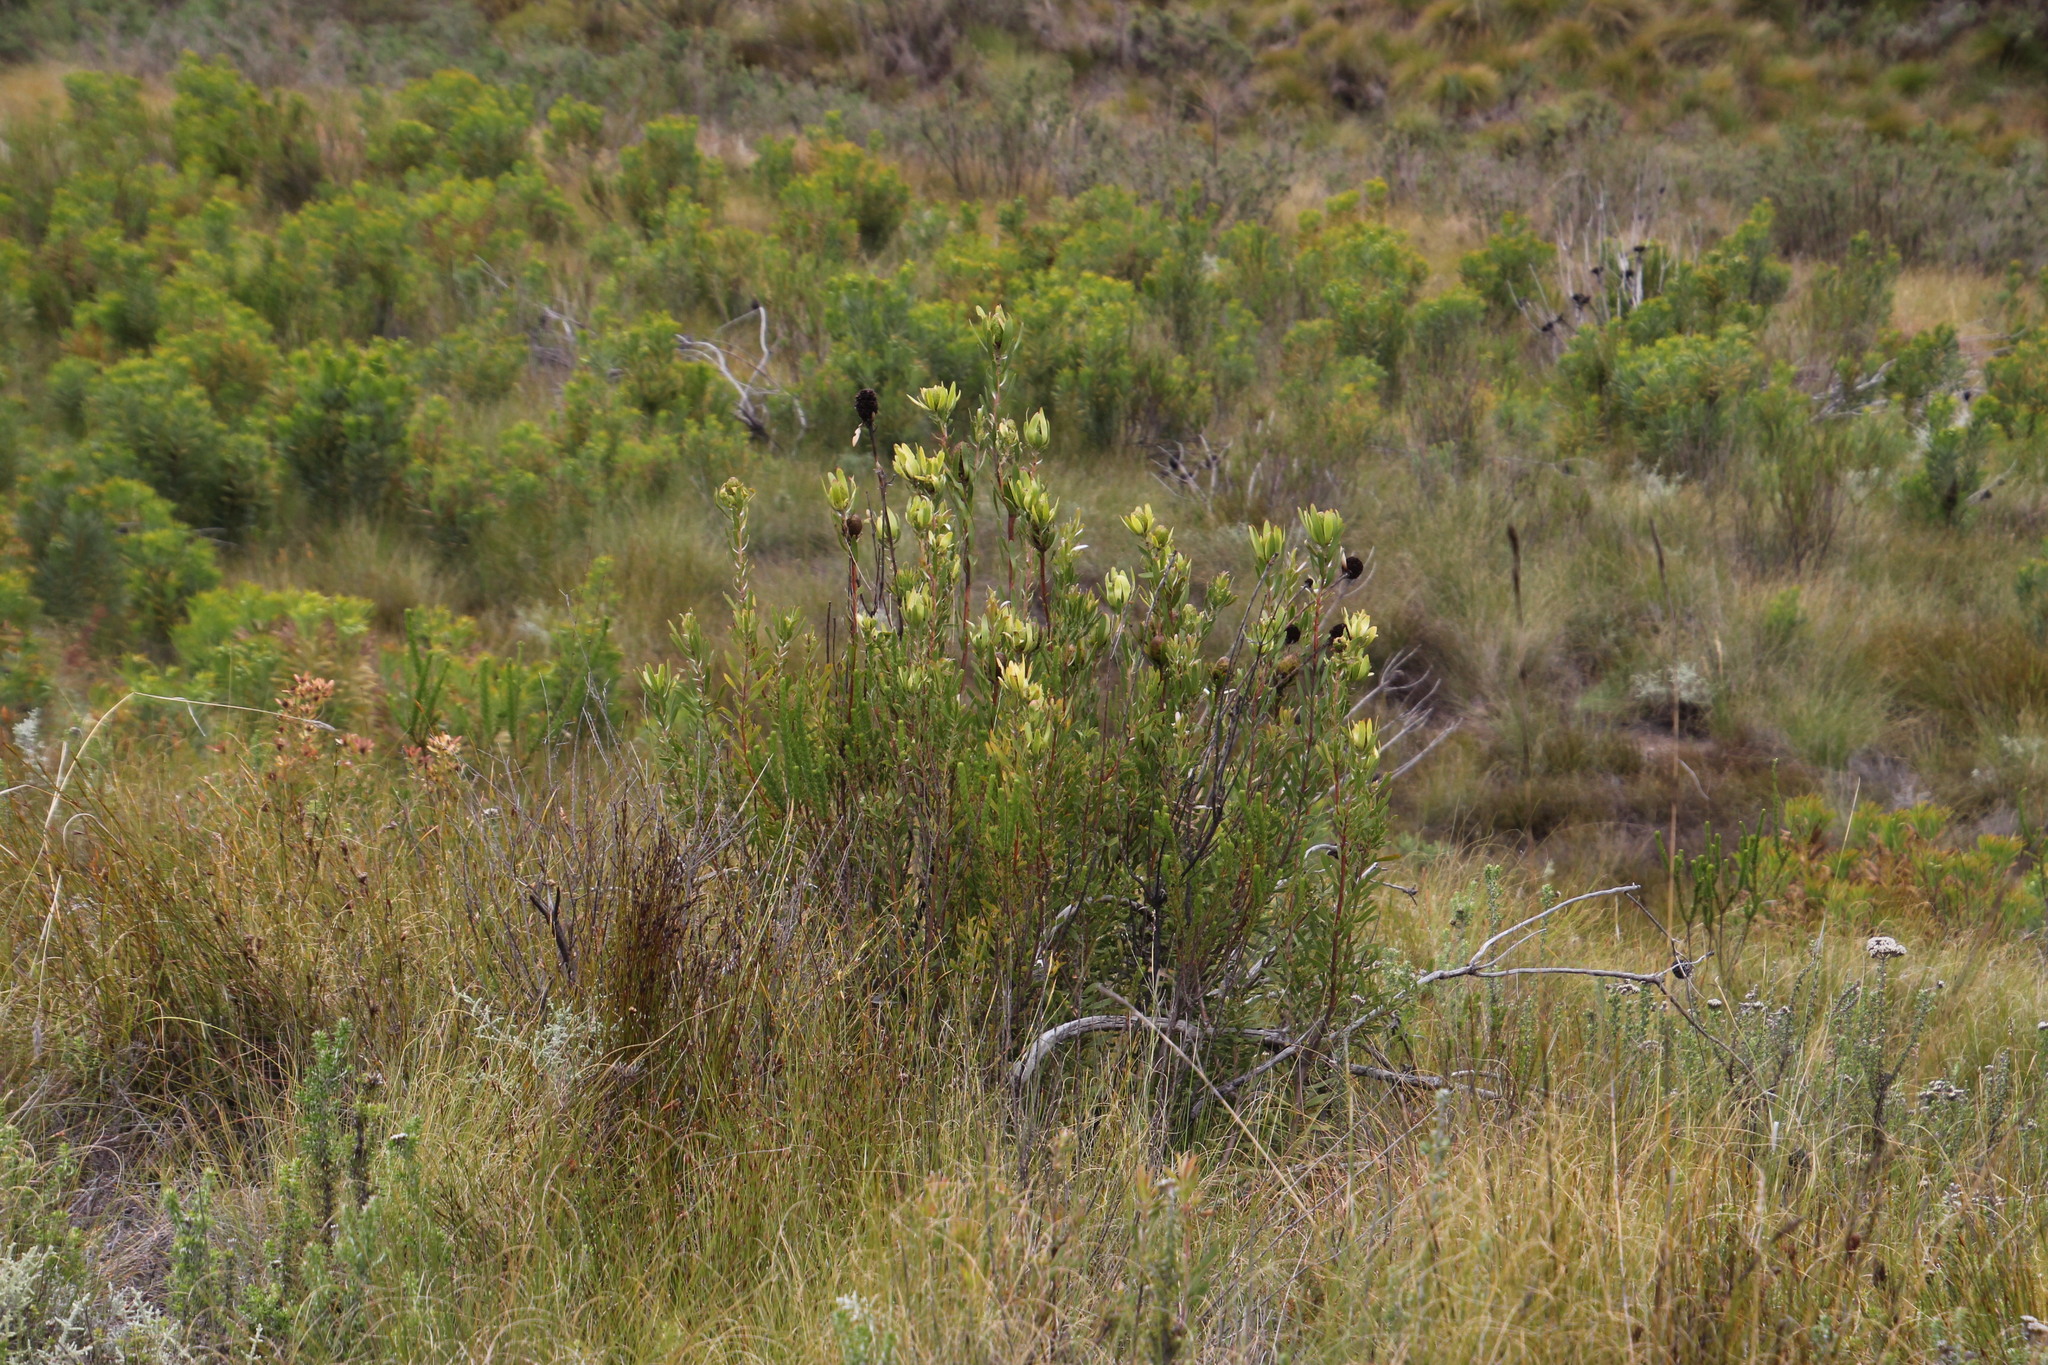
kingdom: Plantae
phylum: Tracheophyta
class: Liliopsida
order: Commelinales
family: Haemodoraceae
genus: Dilatris
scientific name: Dilatris ixioides
